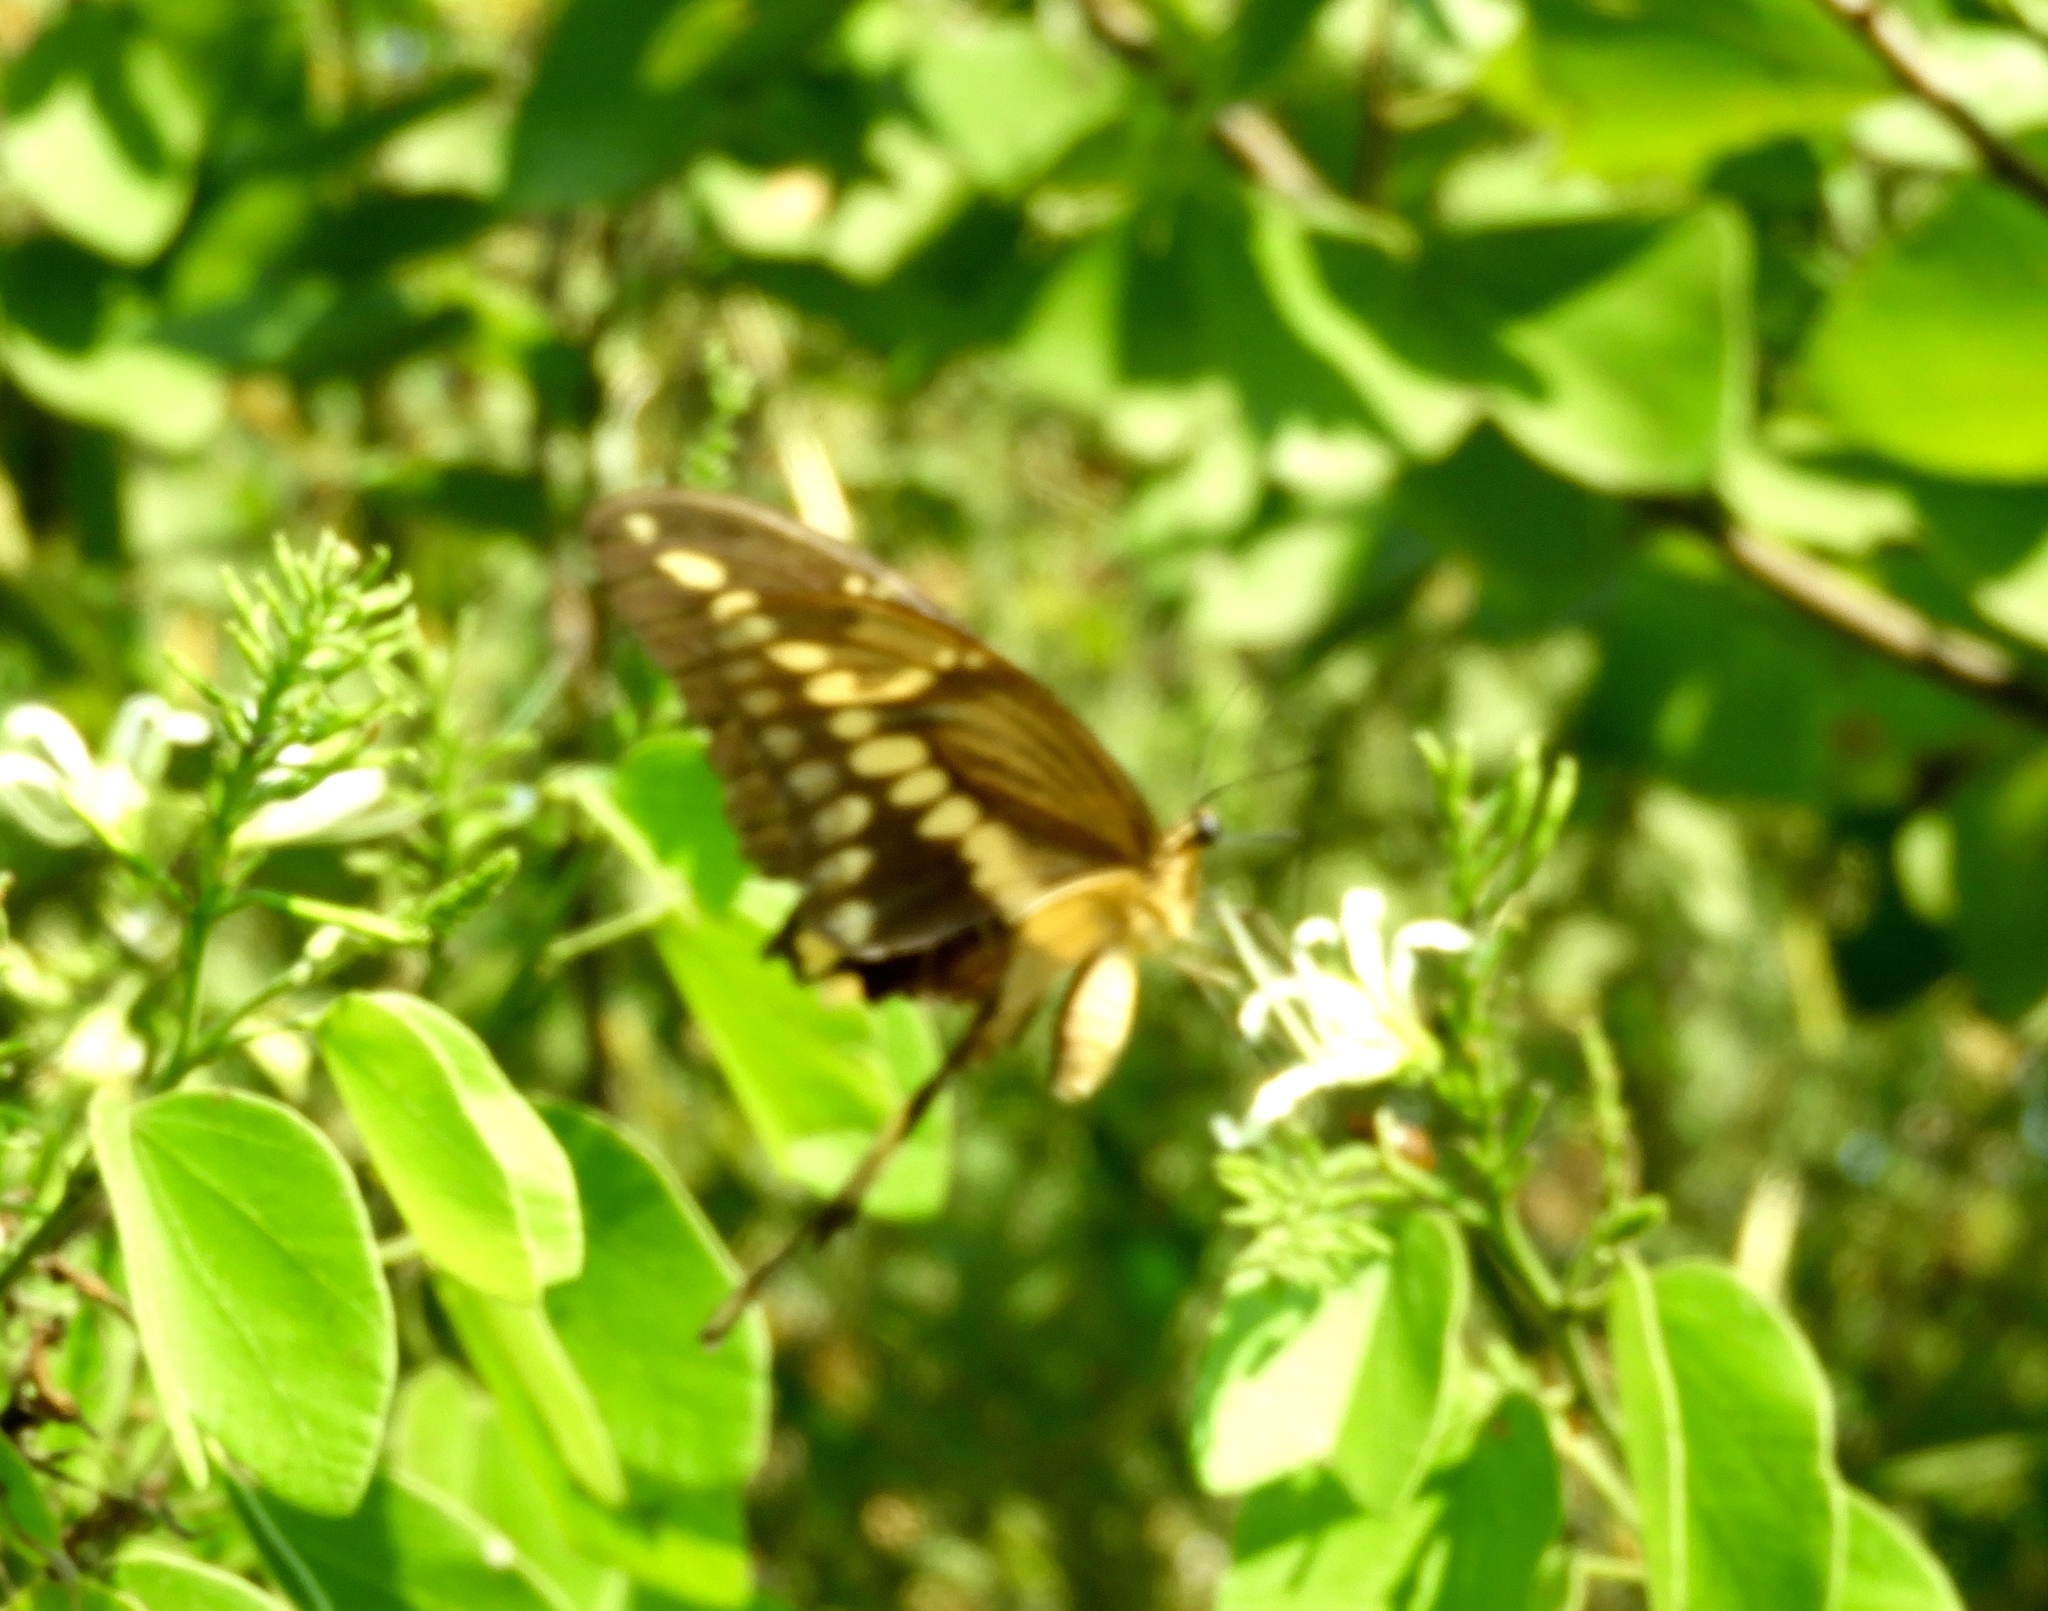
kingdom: Animalia
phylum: Arthropoda
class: Insecta
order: Lepidoptera
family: Papilionidae
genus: Papilio
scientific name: Papilio rumiko
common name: Western giant swallowtail
